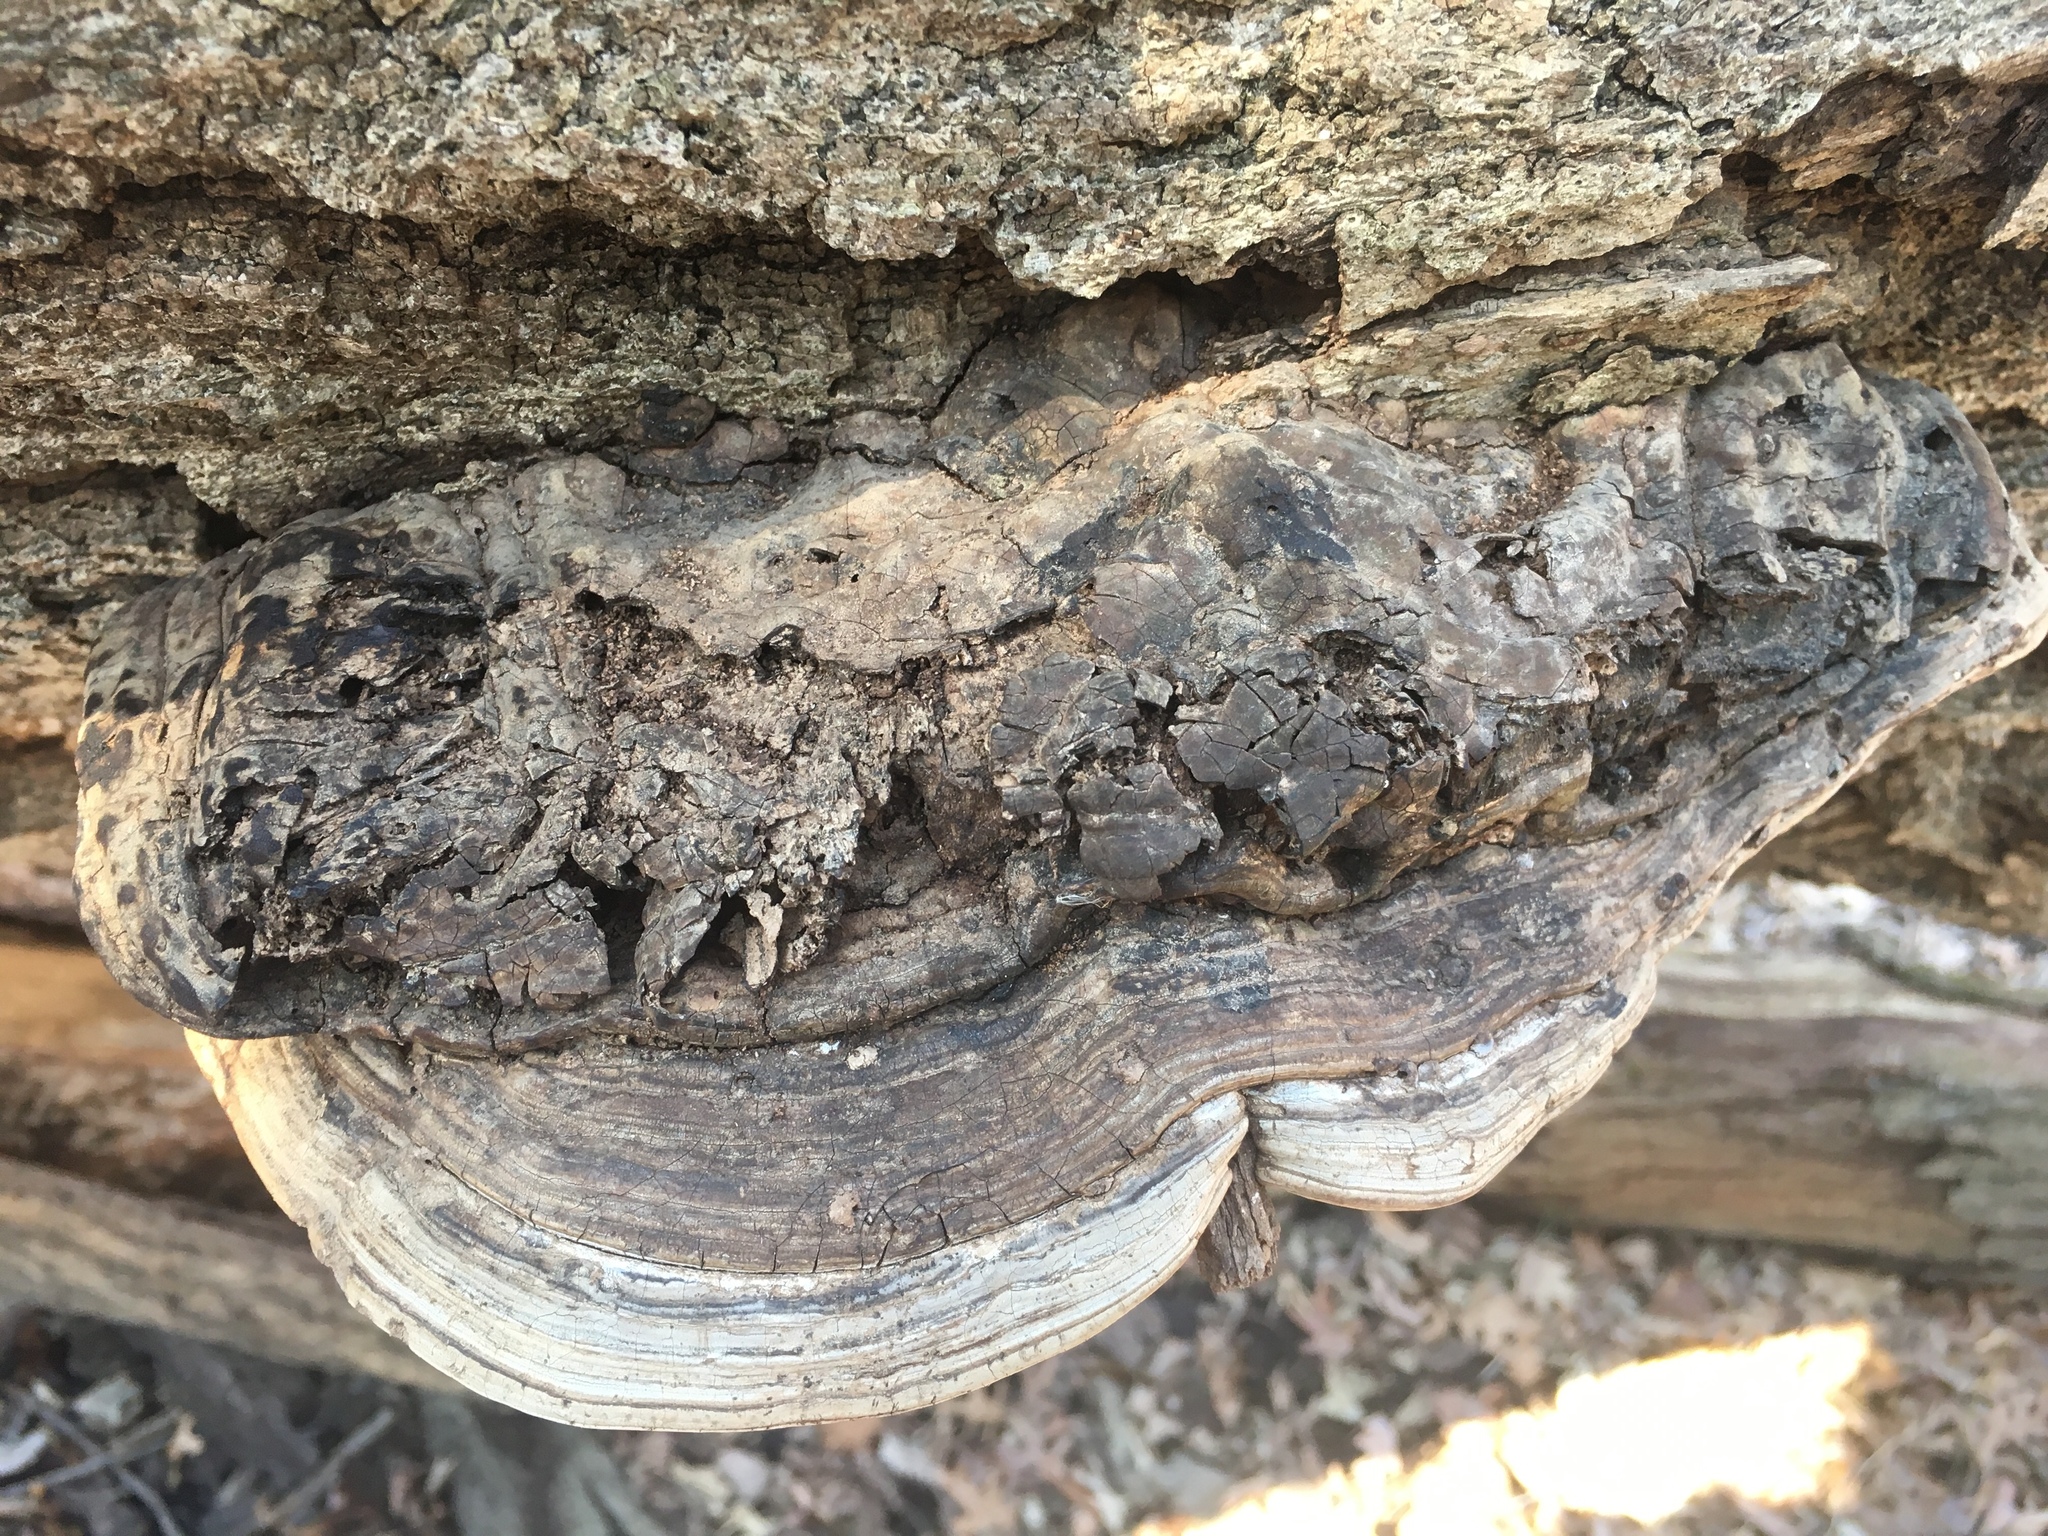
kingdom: Fungi
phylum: Basidiomycota
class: Agaricomycetes
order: Polyporales
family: Polyporaceae
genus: Ganoderma
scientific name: Ganoderma applanatum
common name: Artist's bracket
